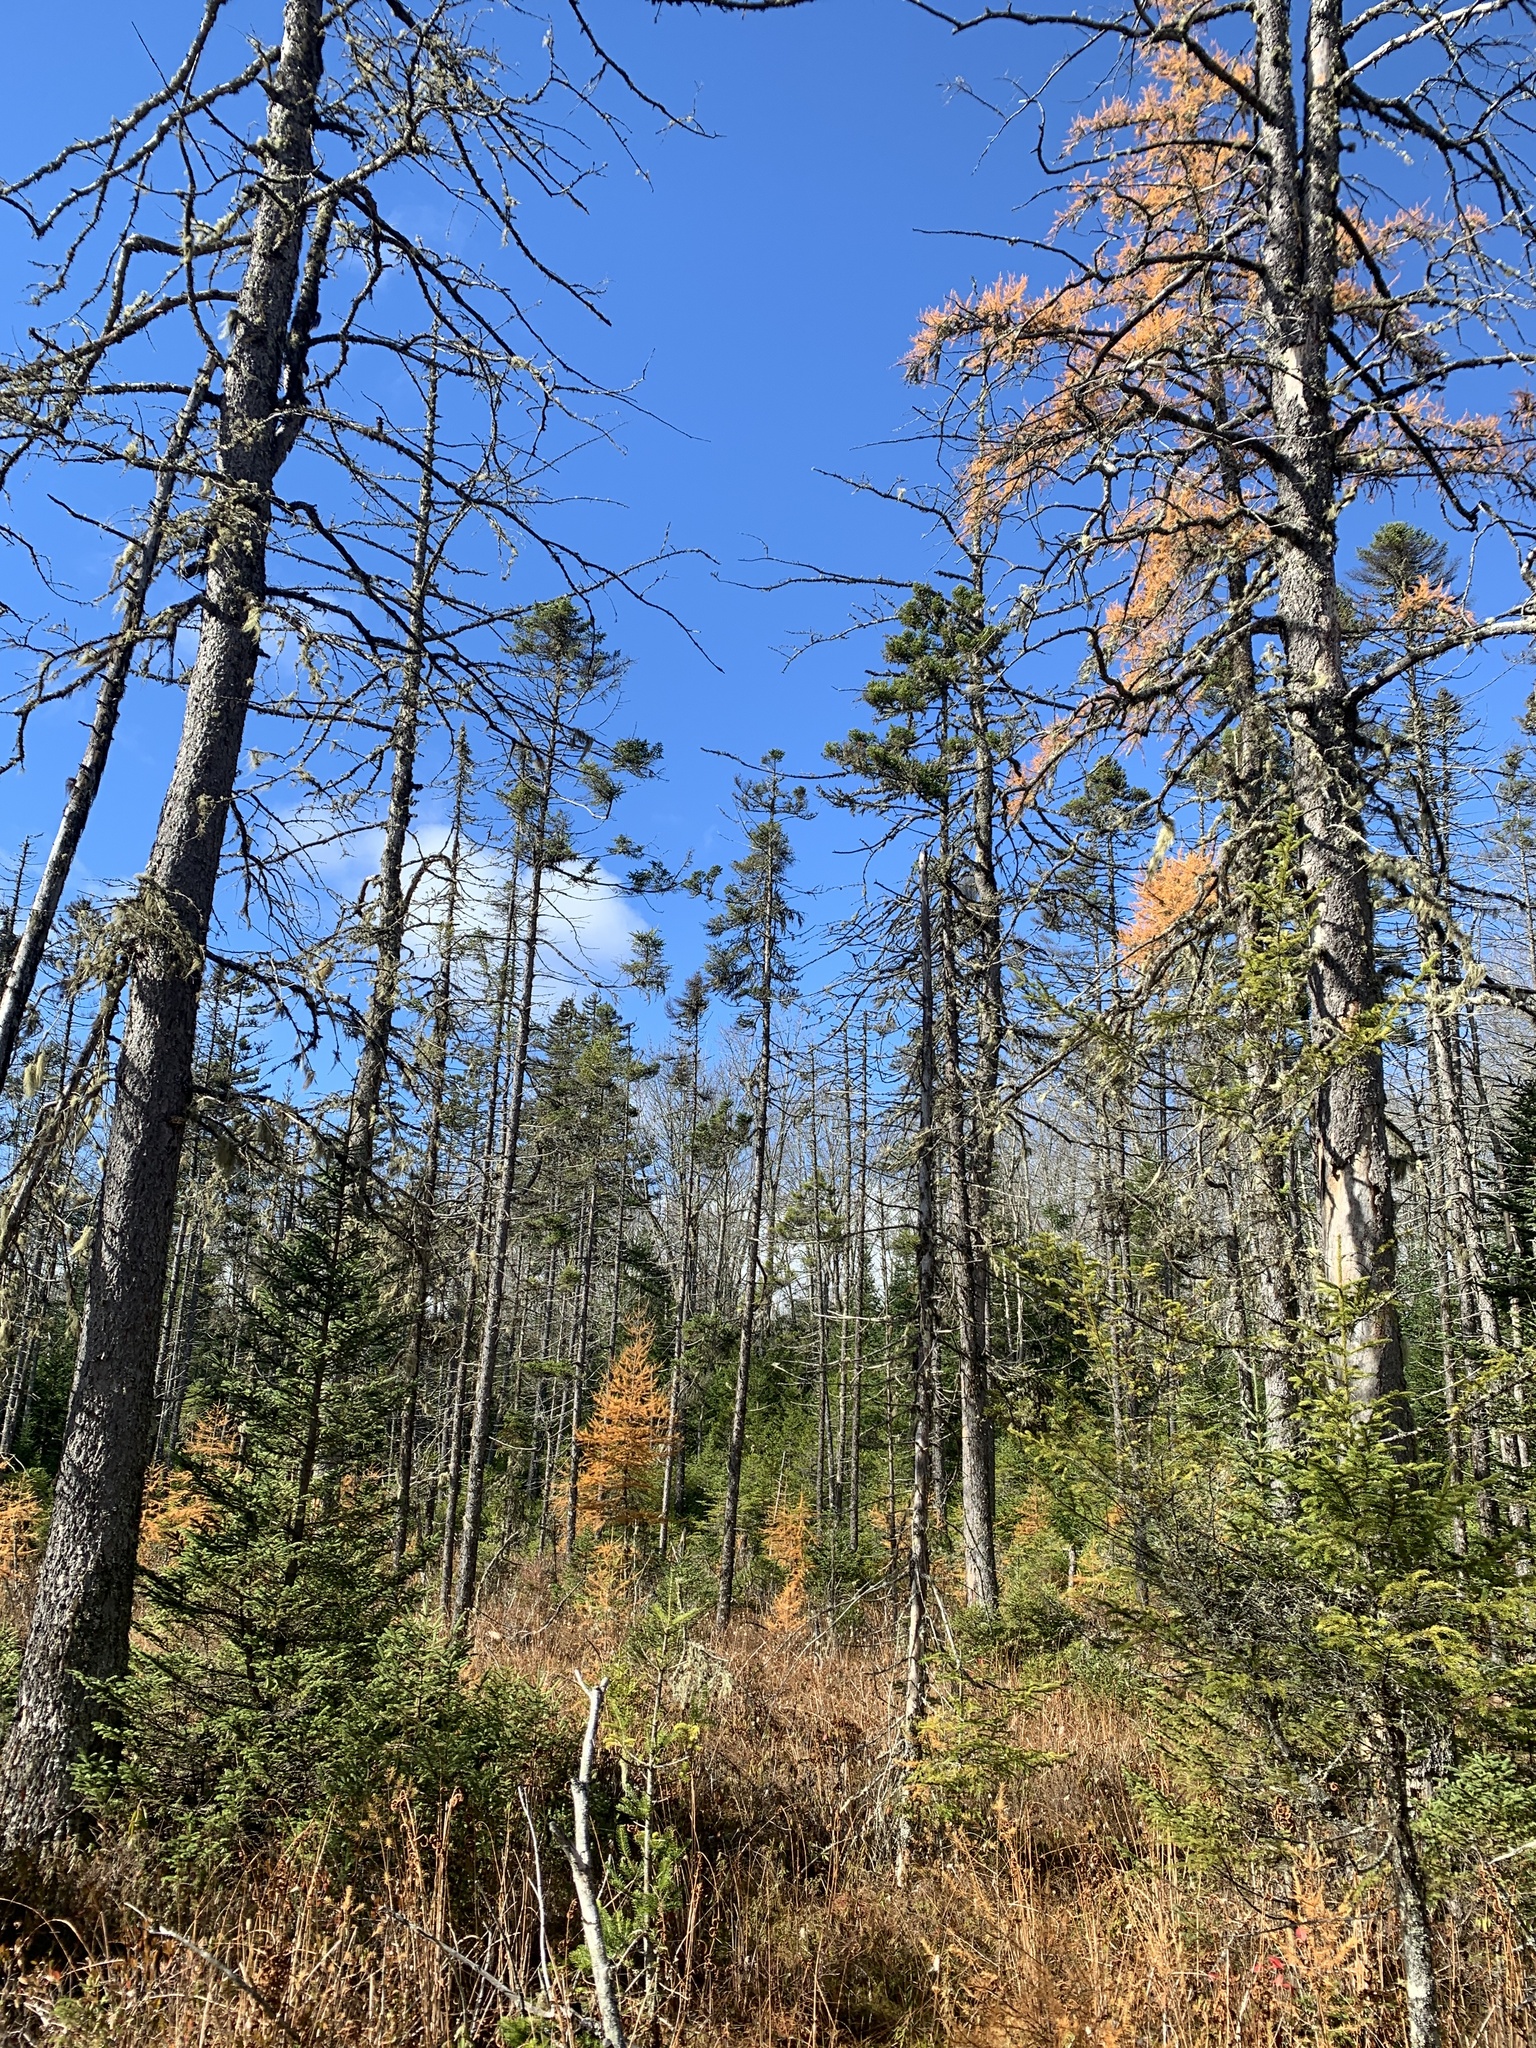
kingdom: Plantae
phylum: Tracheophyta
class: Pinopsida
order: Pinales
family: Pinaceae
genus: Picea
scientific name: Picea mariana
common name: Black spruce
